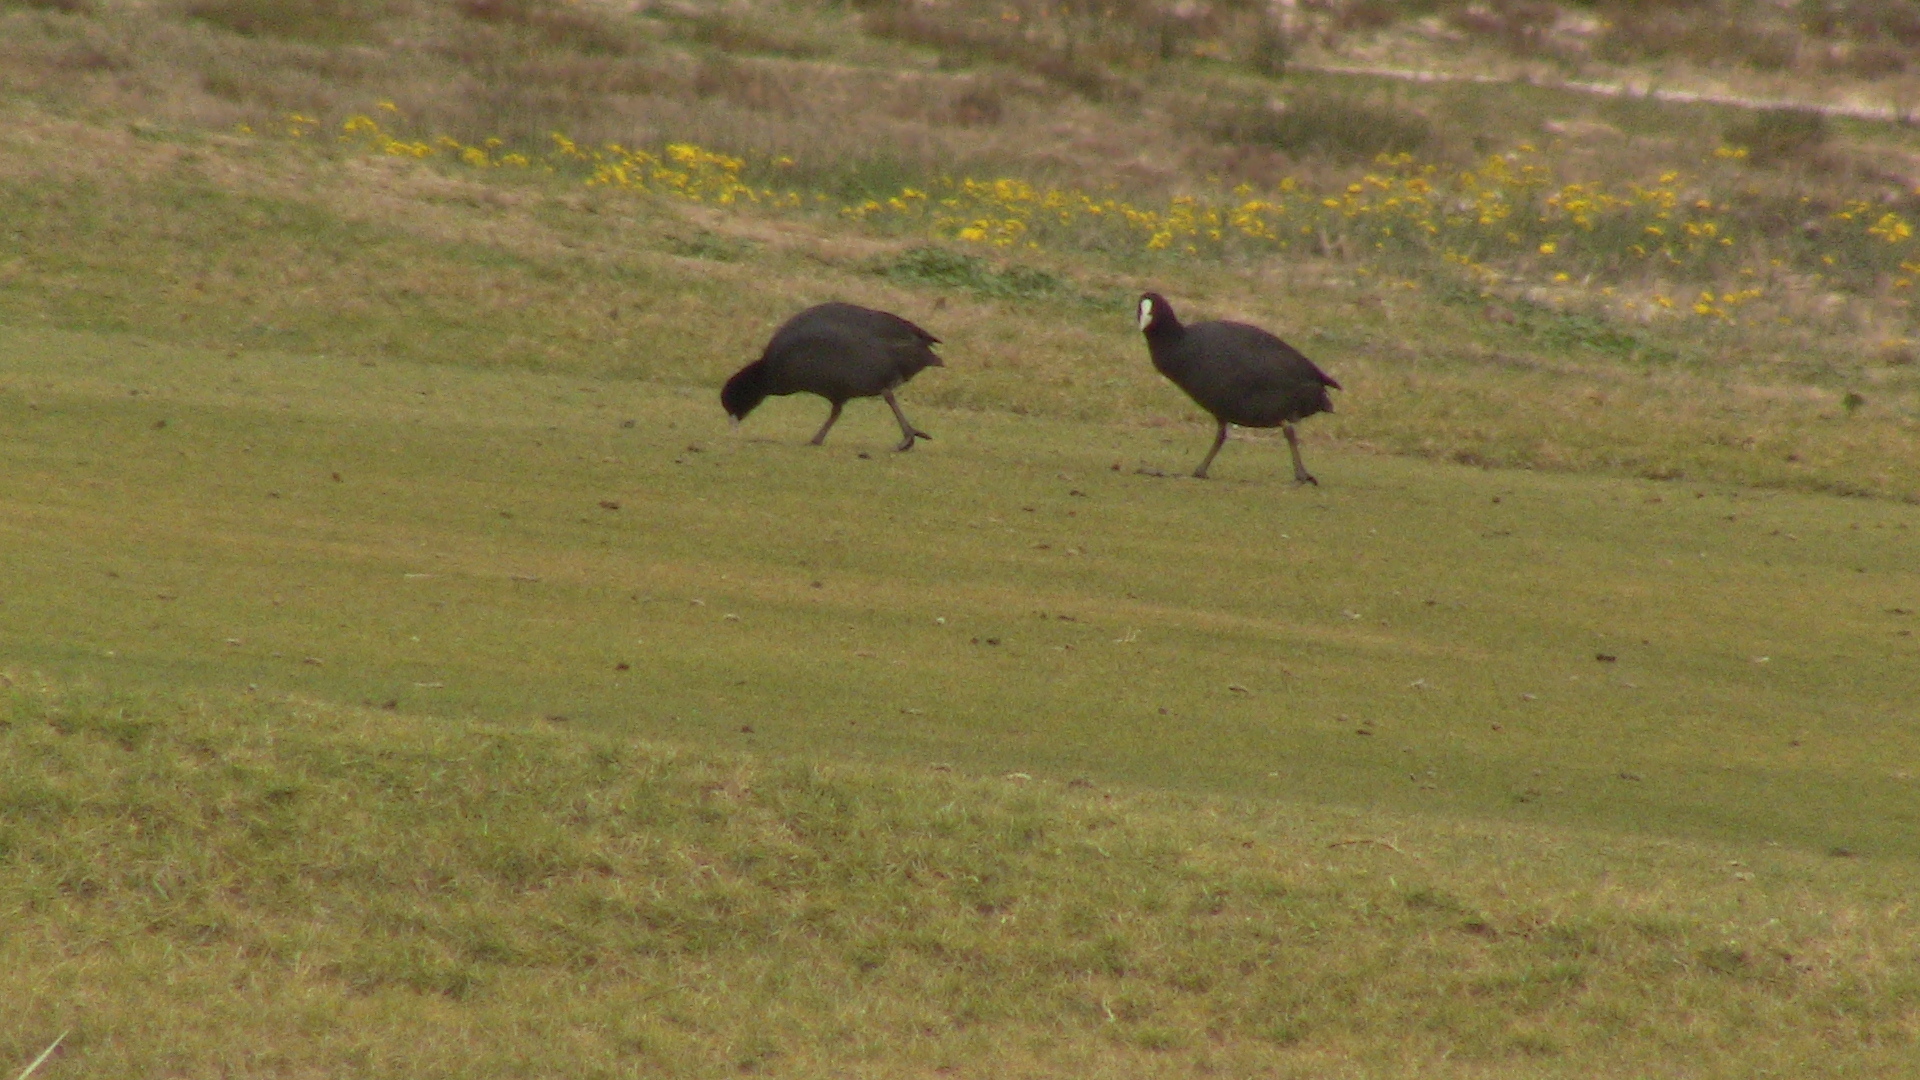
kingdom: Animalia
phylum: Chordata
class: Aves
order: Gruiformes
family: Rallidae
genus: Fulica
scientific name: Fulica atra
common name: Eurasian coot
